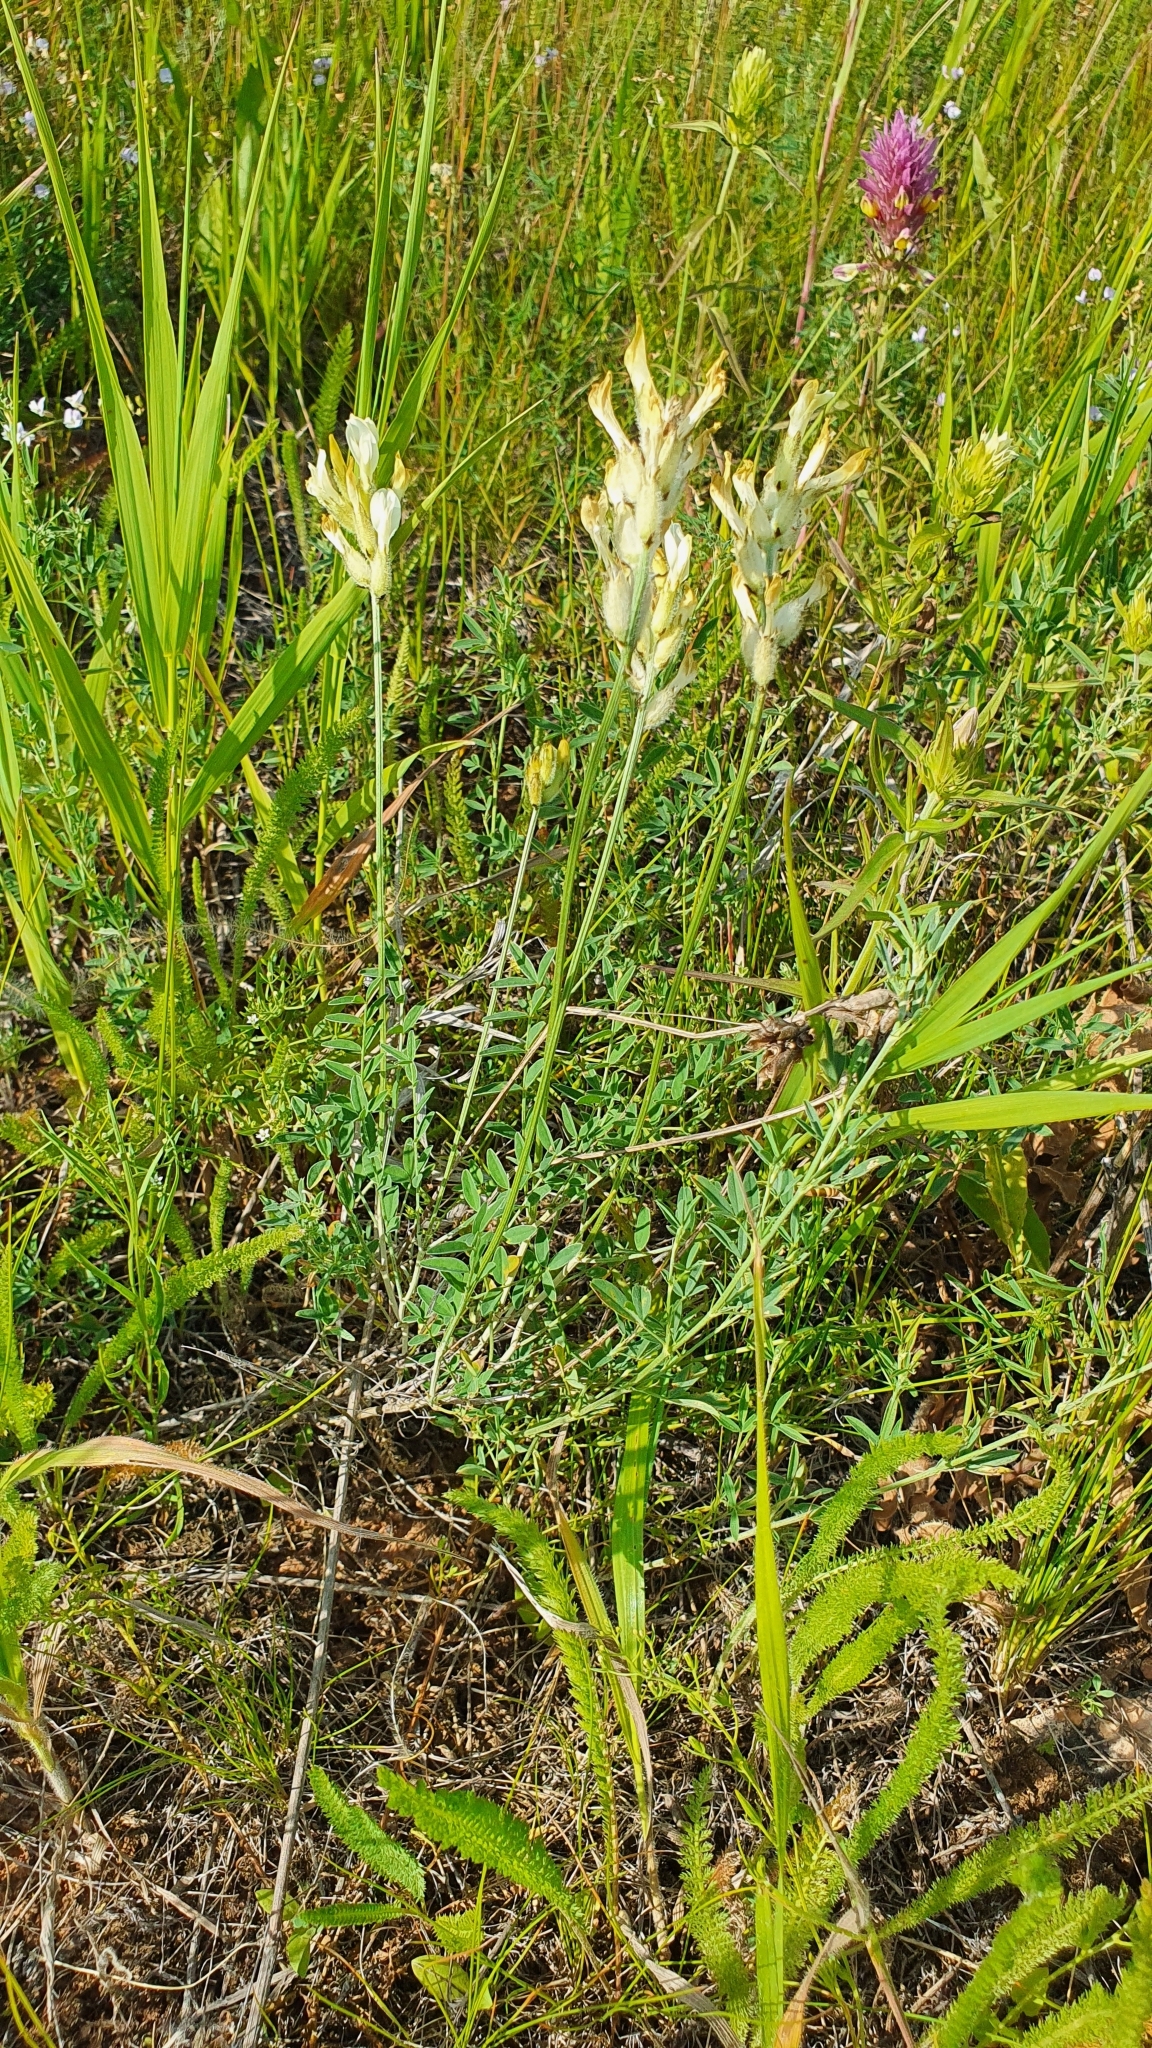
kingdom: Plantae
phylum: Tracheophyta
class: Magnoliopsida
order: Fabales
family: Fabaceae
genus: Astragalus
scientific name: Astragalus zingeri
